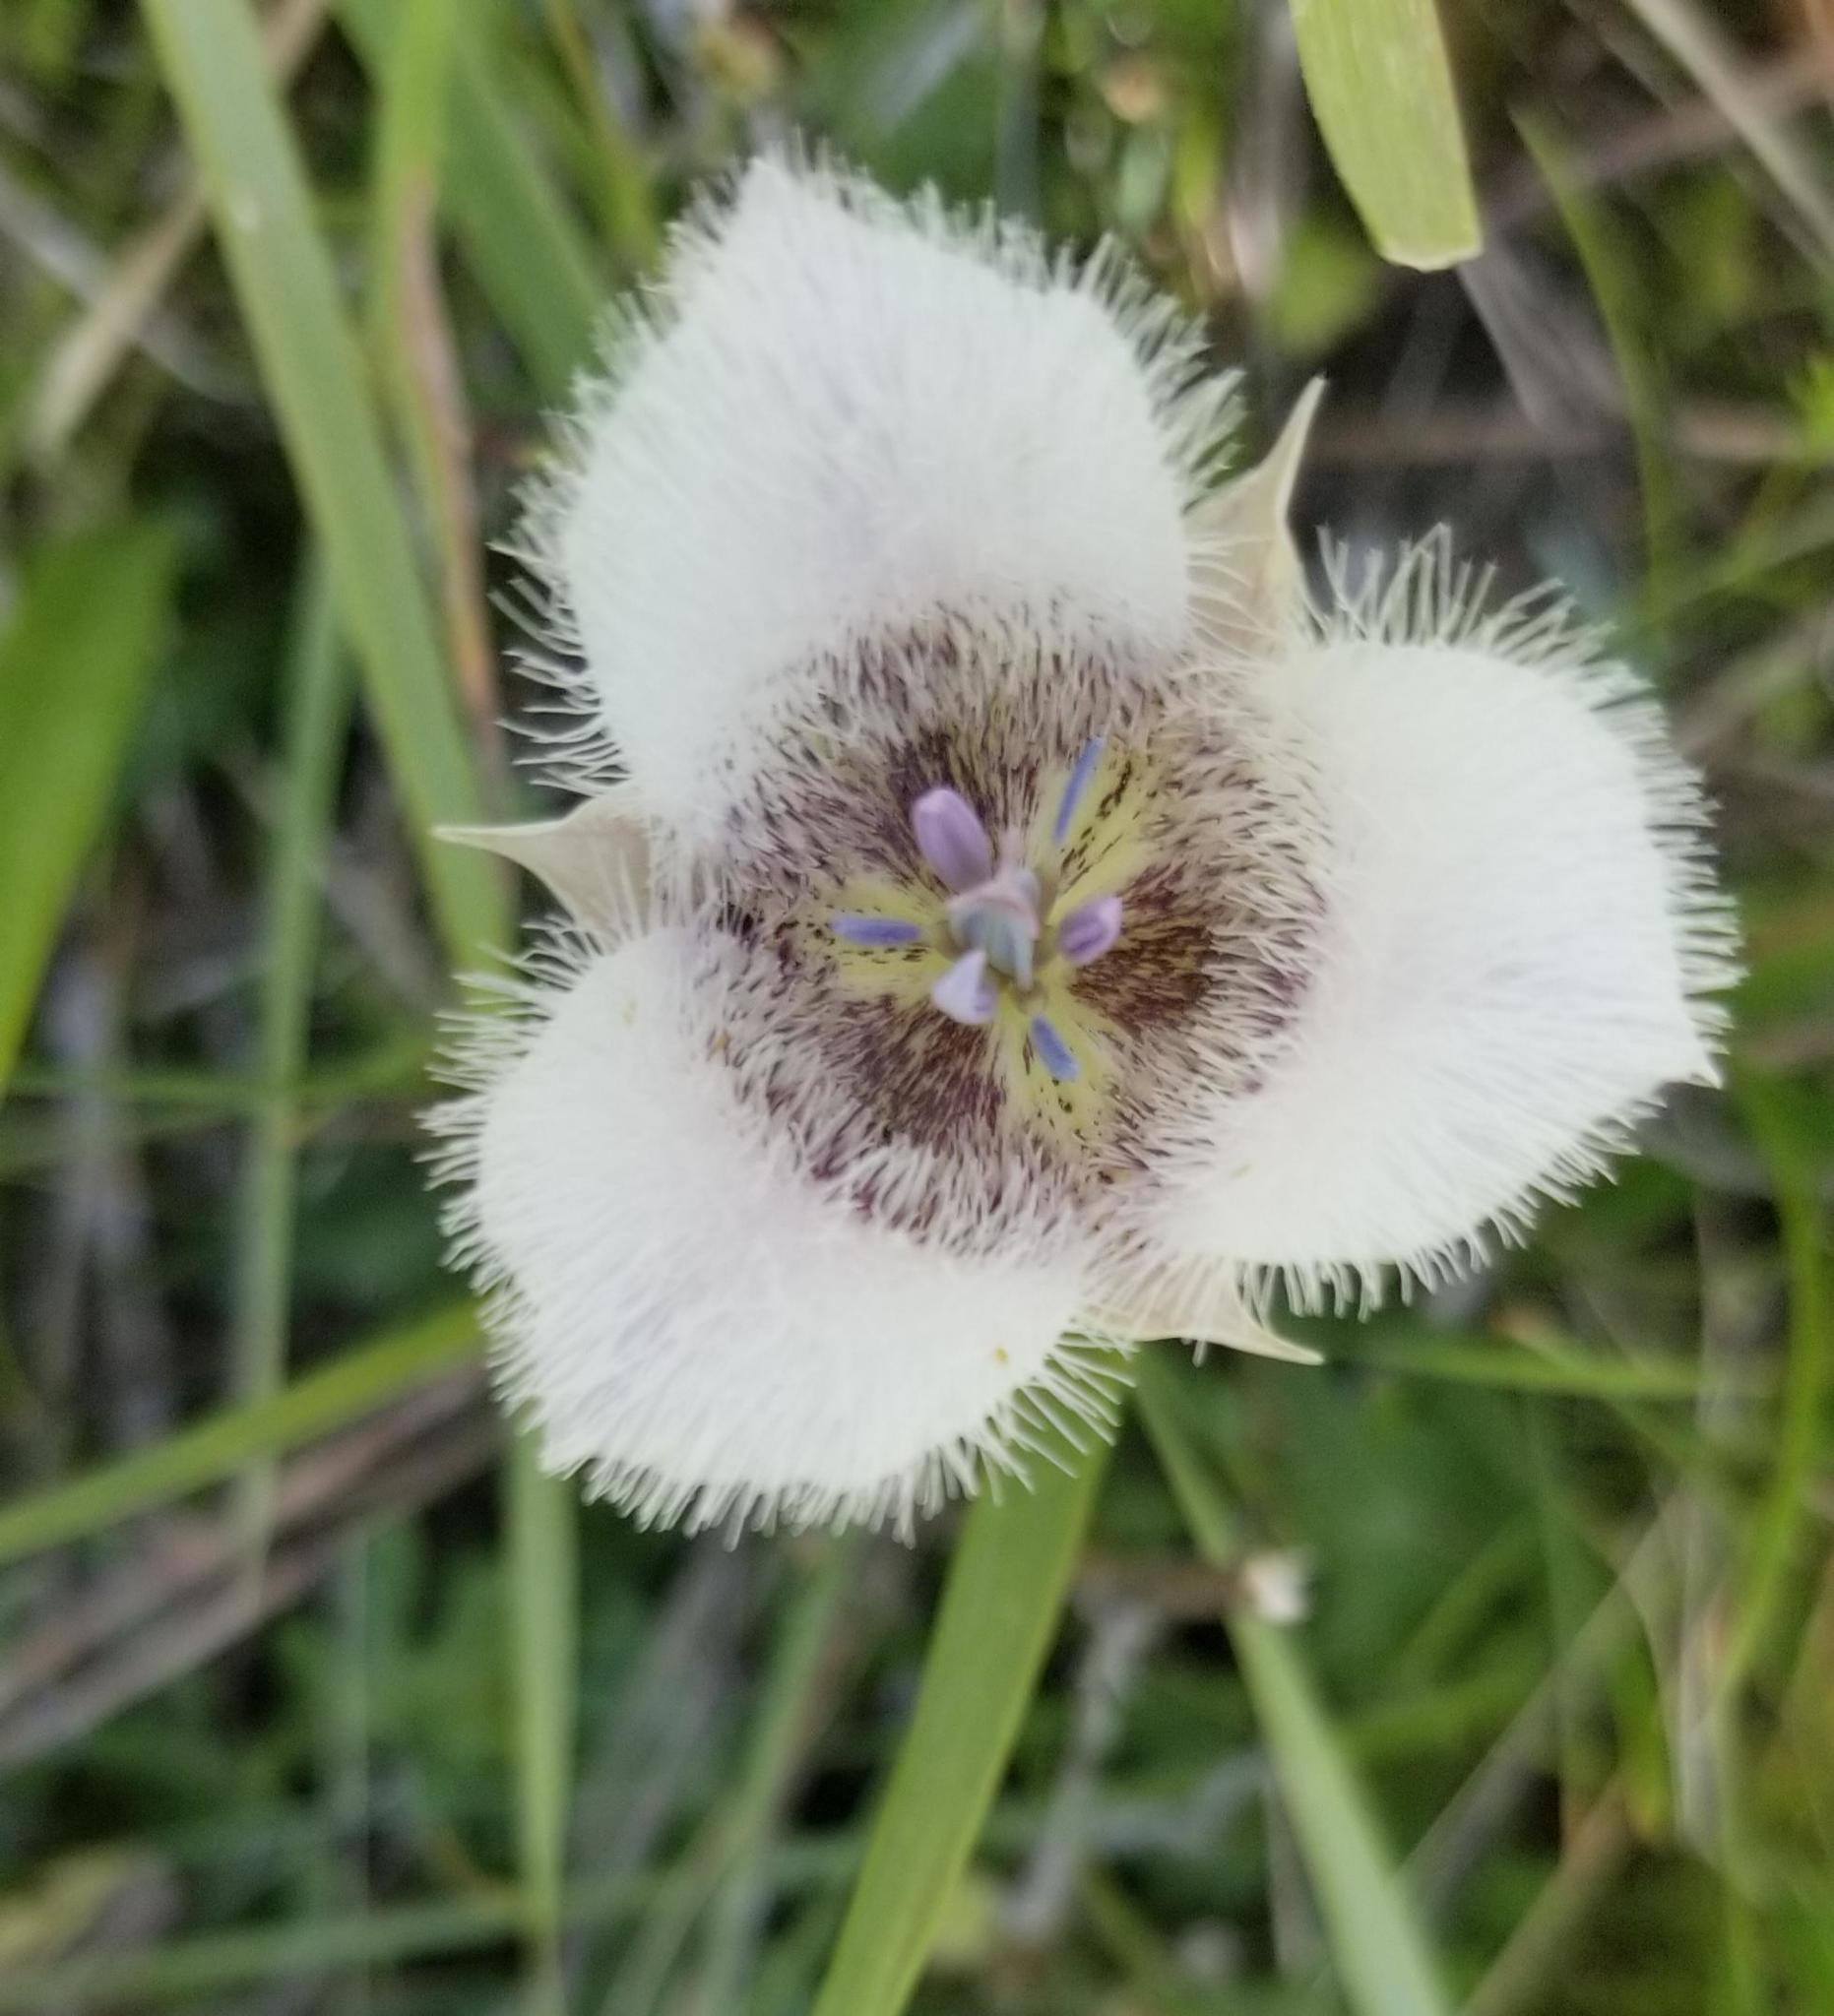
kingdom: Plantae
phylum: Tracheophyta
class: Liliopsida
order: Liliales
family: Liliaceae
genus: Calochortus
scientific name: Calochortus tolmiei
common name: Pussy-ears
